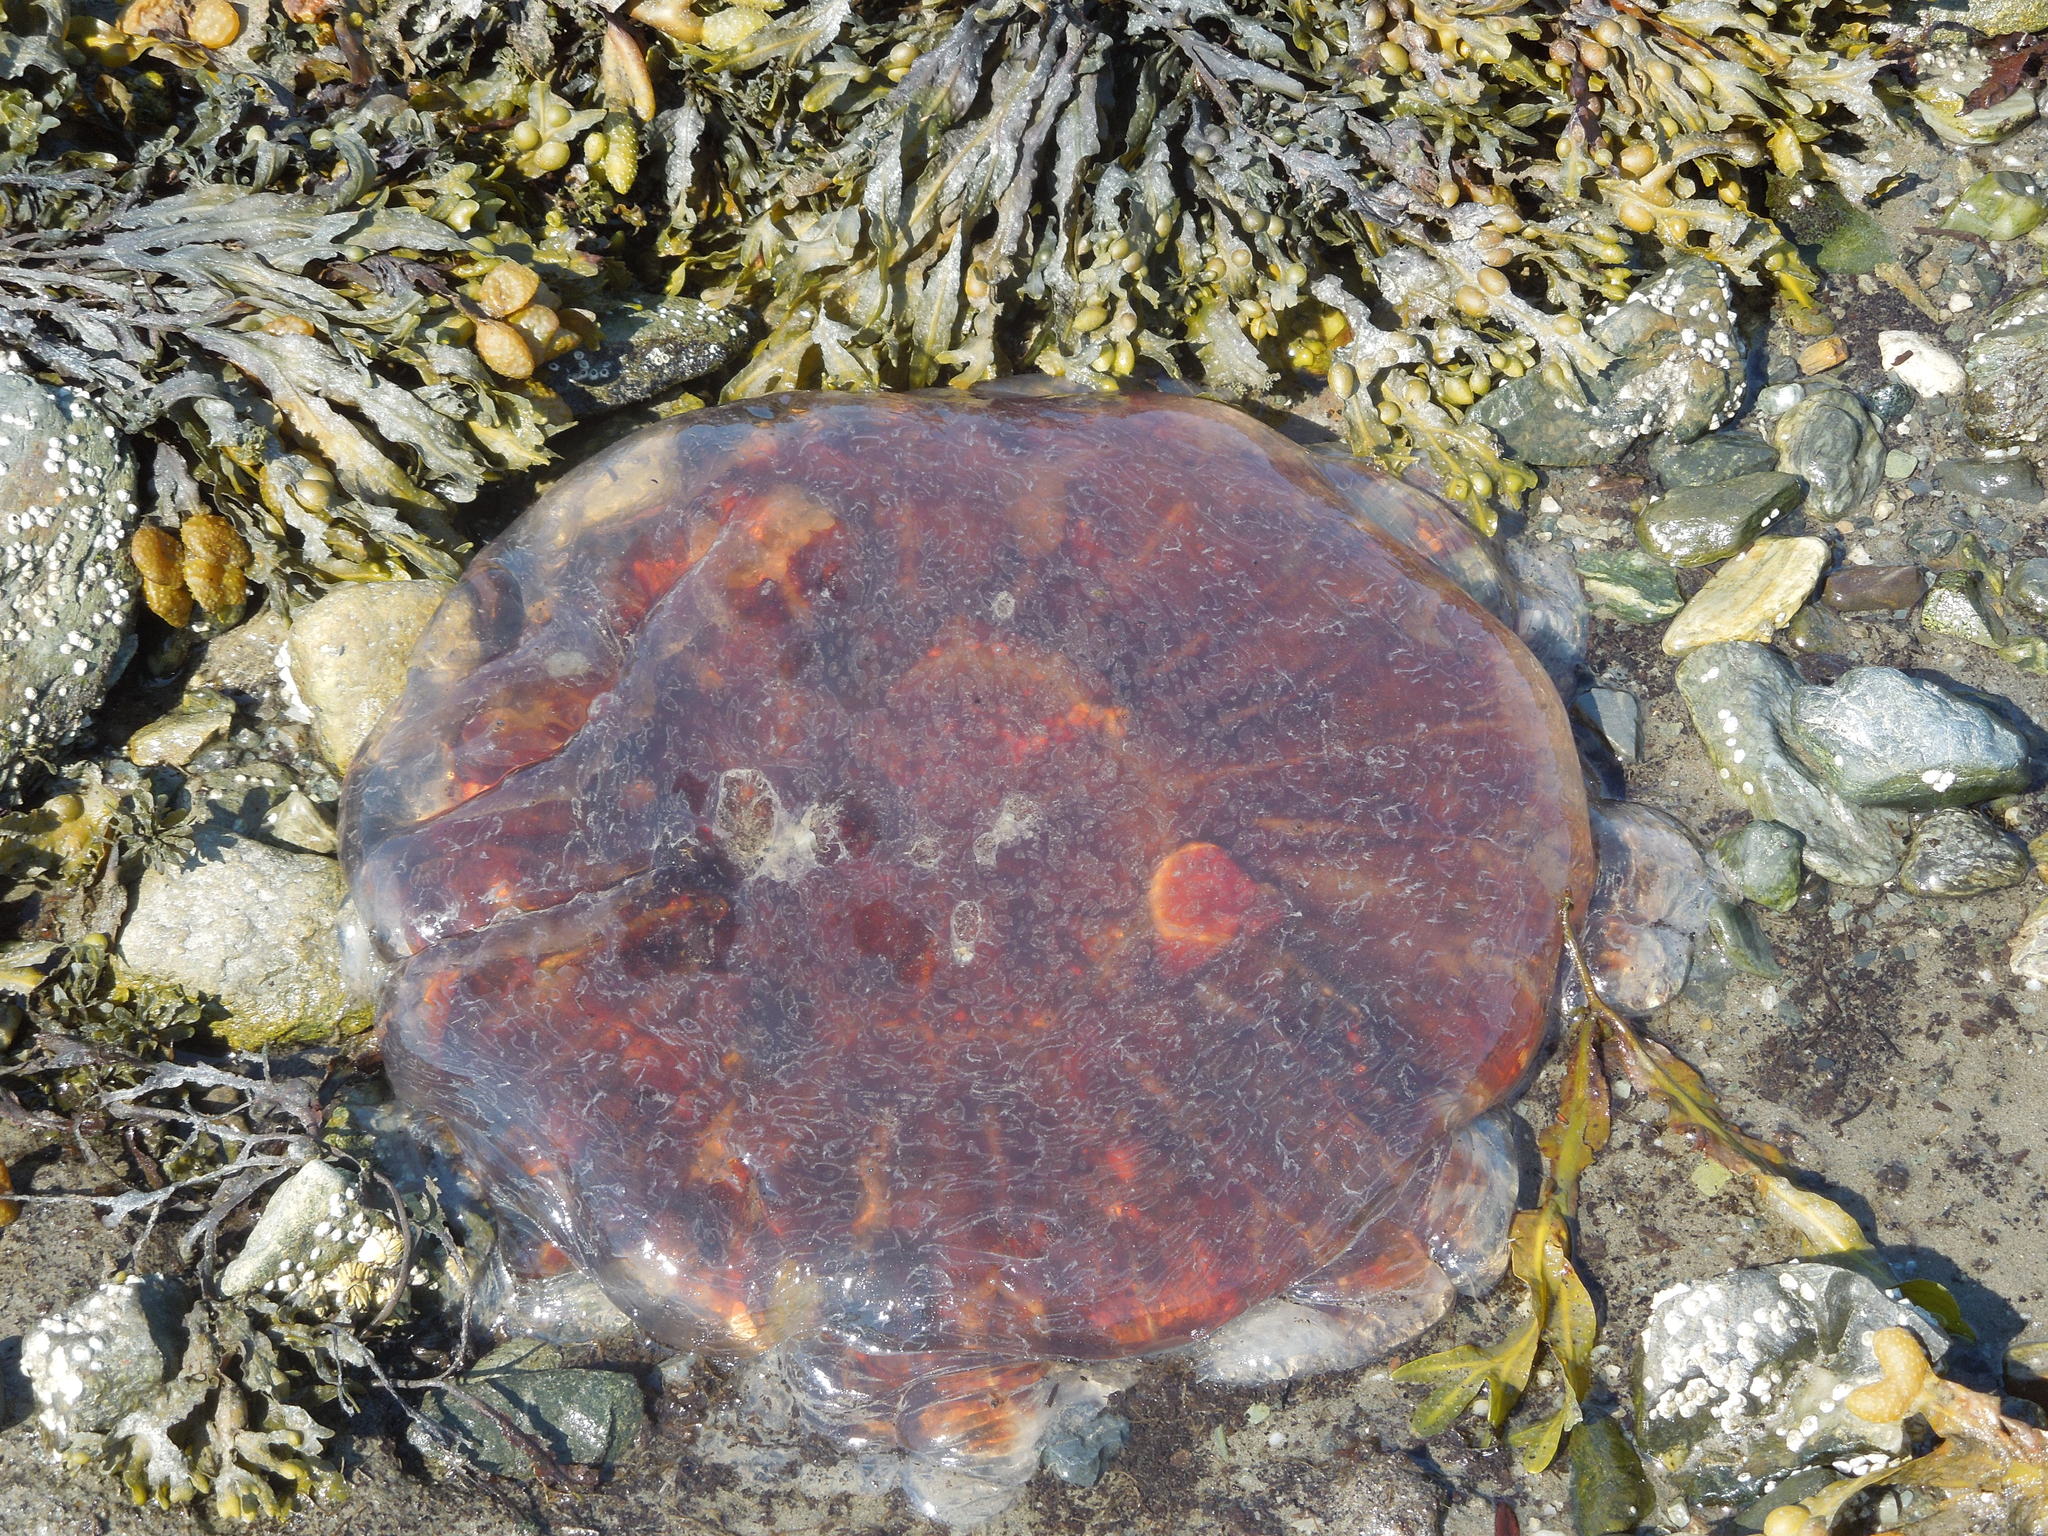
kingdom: Animalia
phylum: Cnidaria
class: Scyphozoa
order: Semaeostomeae
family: Cyaneidae
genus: Cyanea
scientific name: Cyanea
